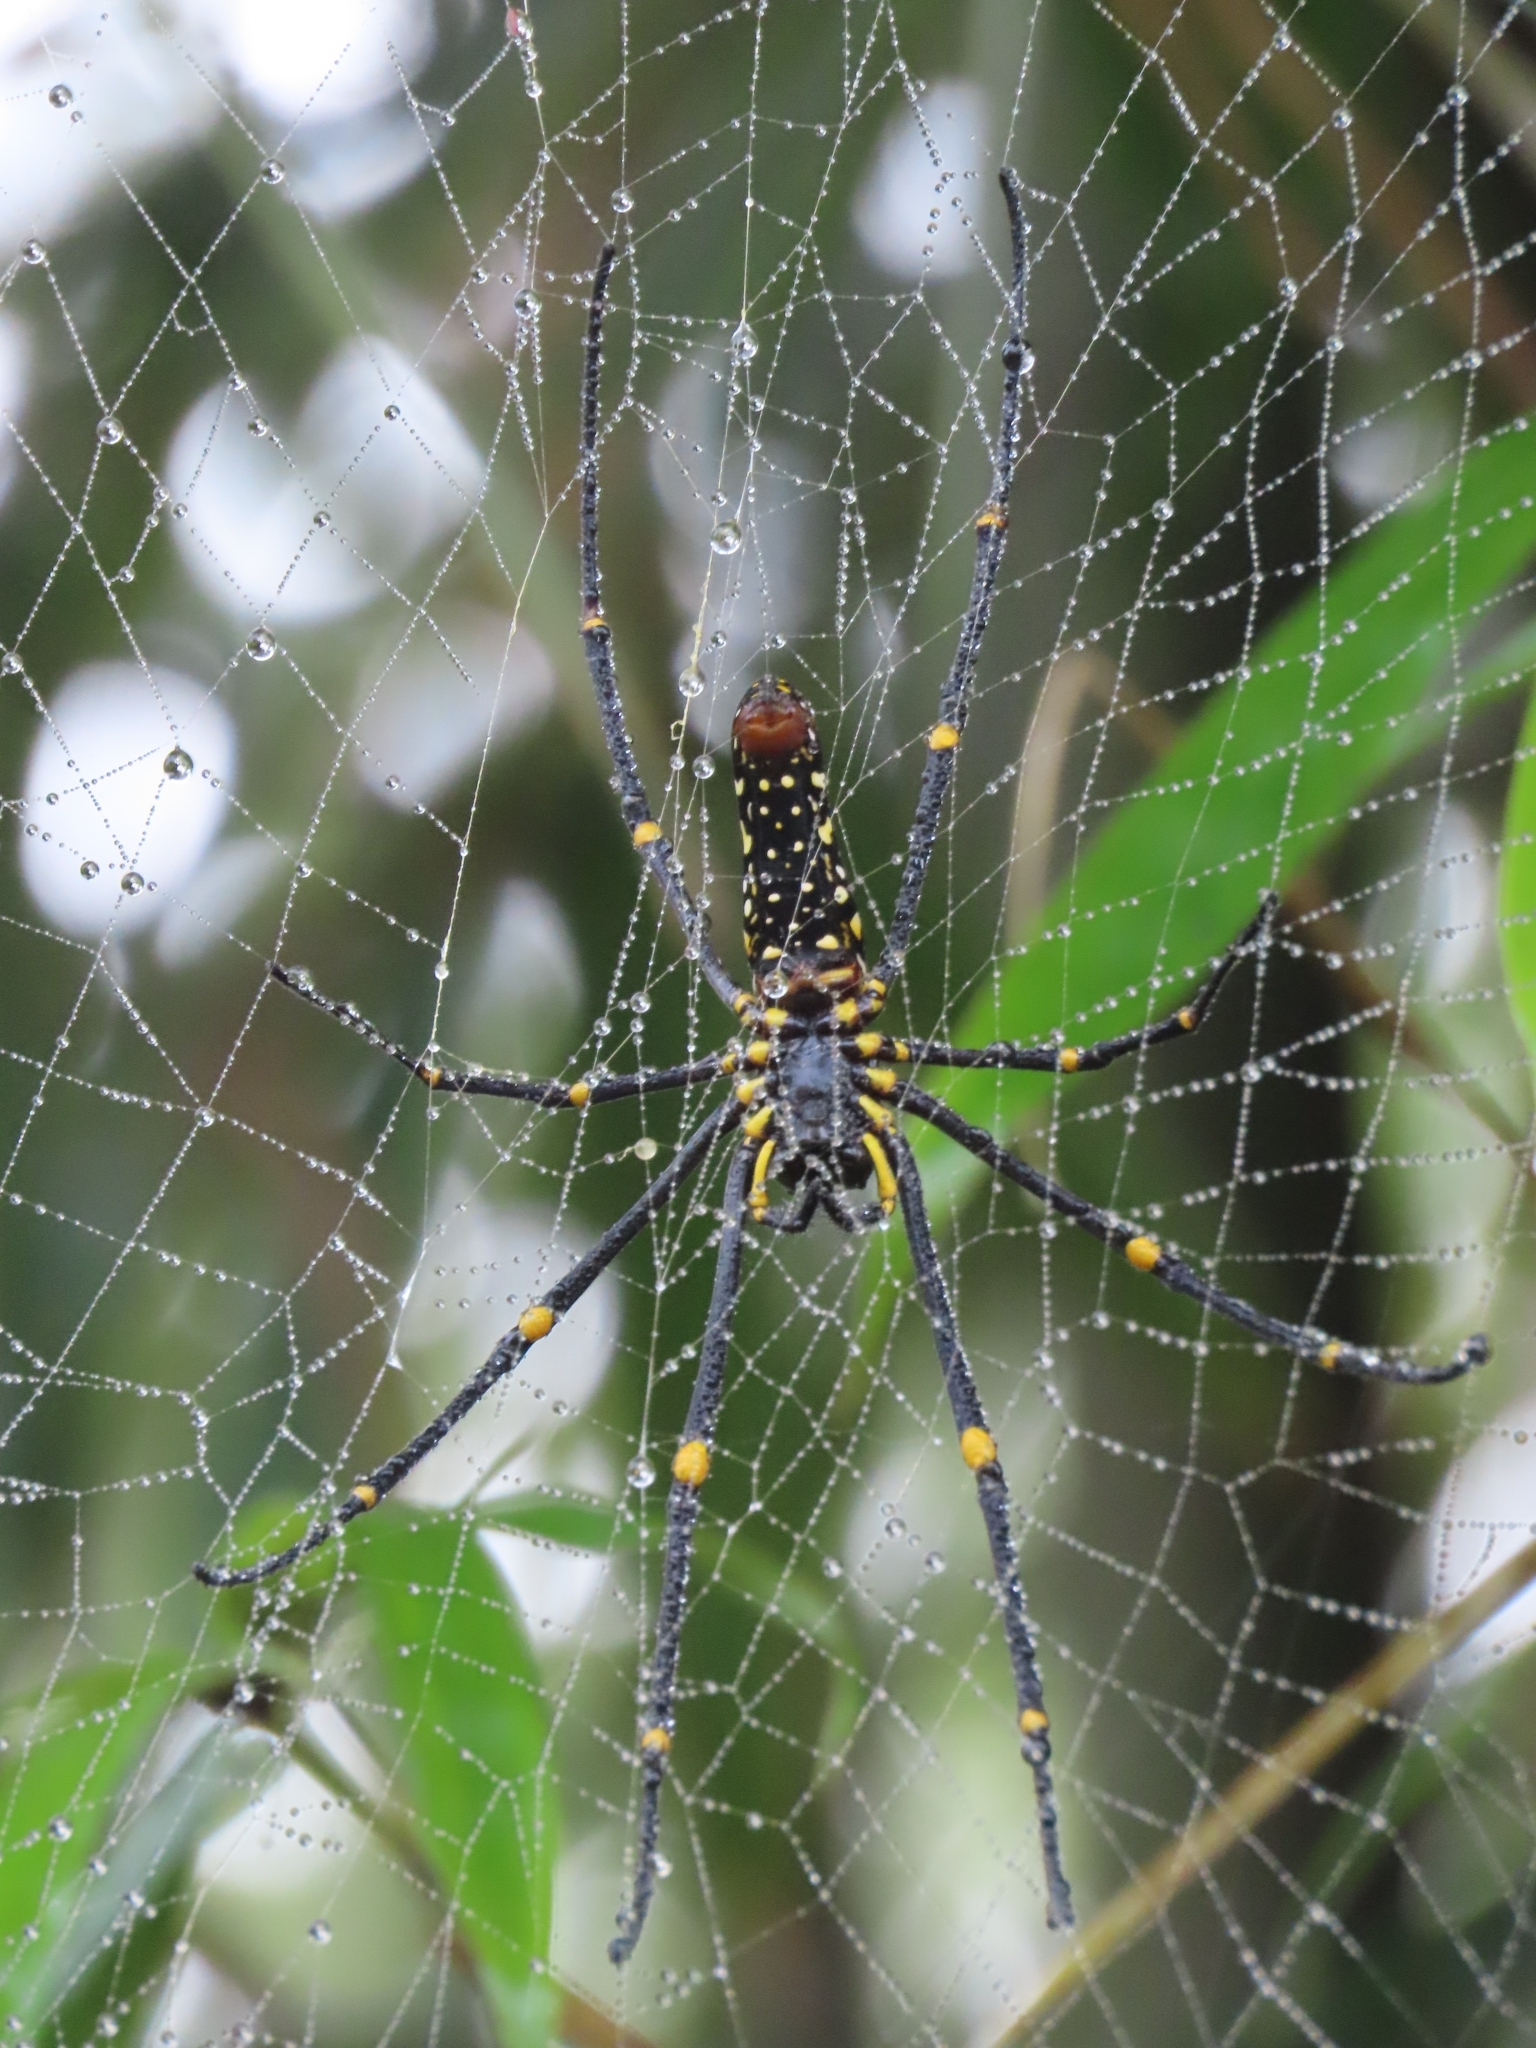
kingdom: Animalia
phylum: Arthropoda
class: Arachnida
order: Araneae
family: Araneidae
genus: Nephila
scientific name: Nephila pilipes
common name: Giant golden orb weaver
